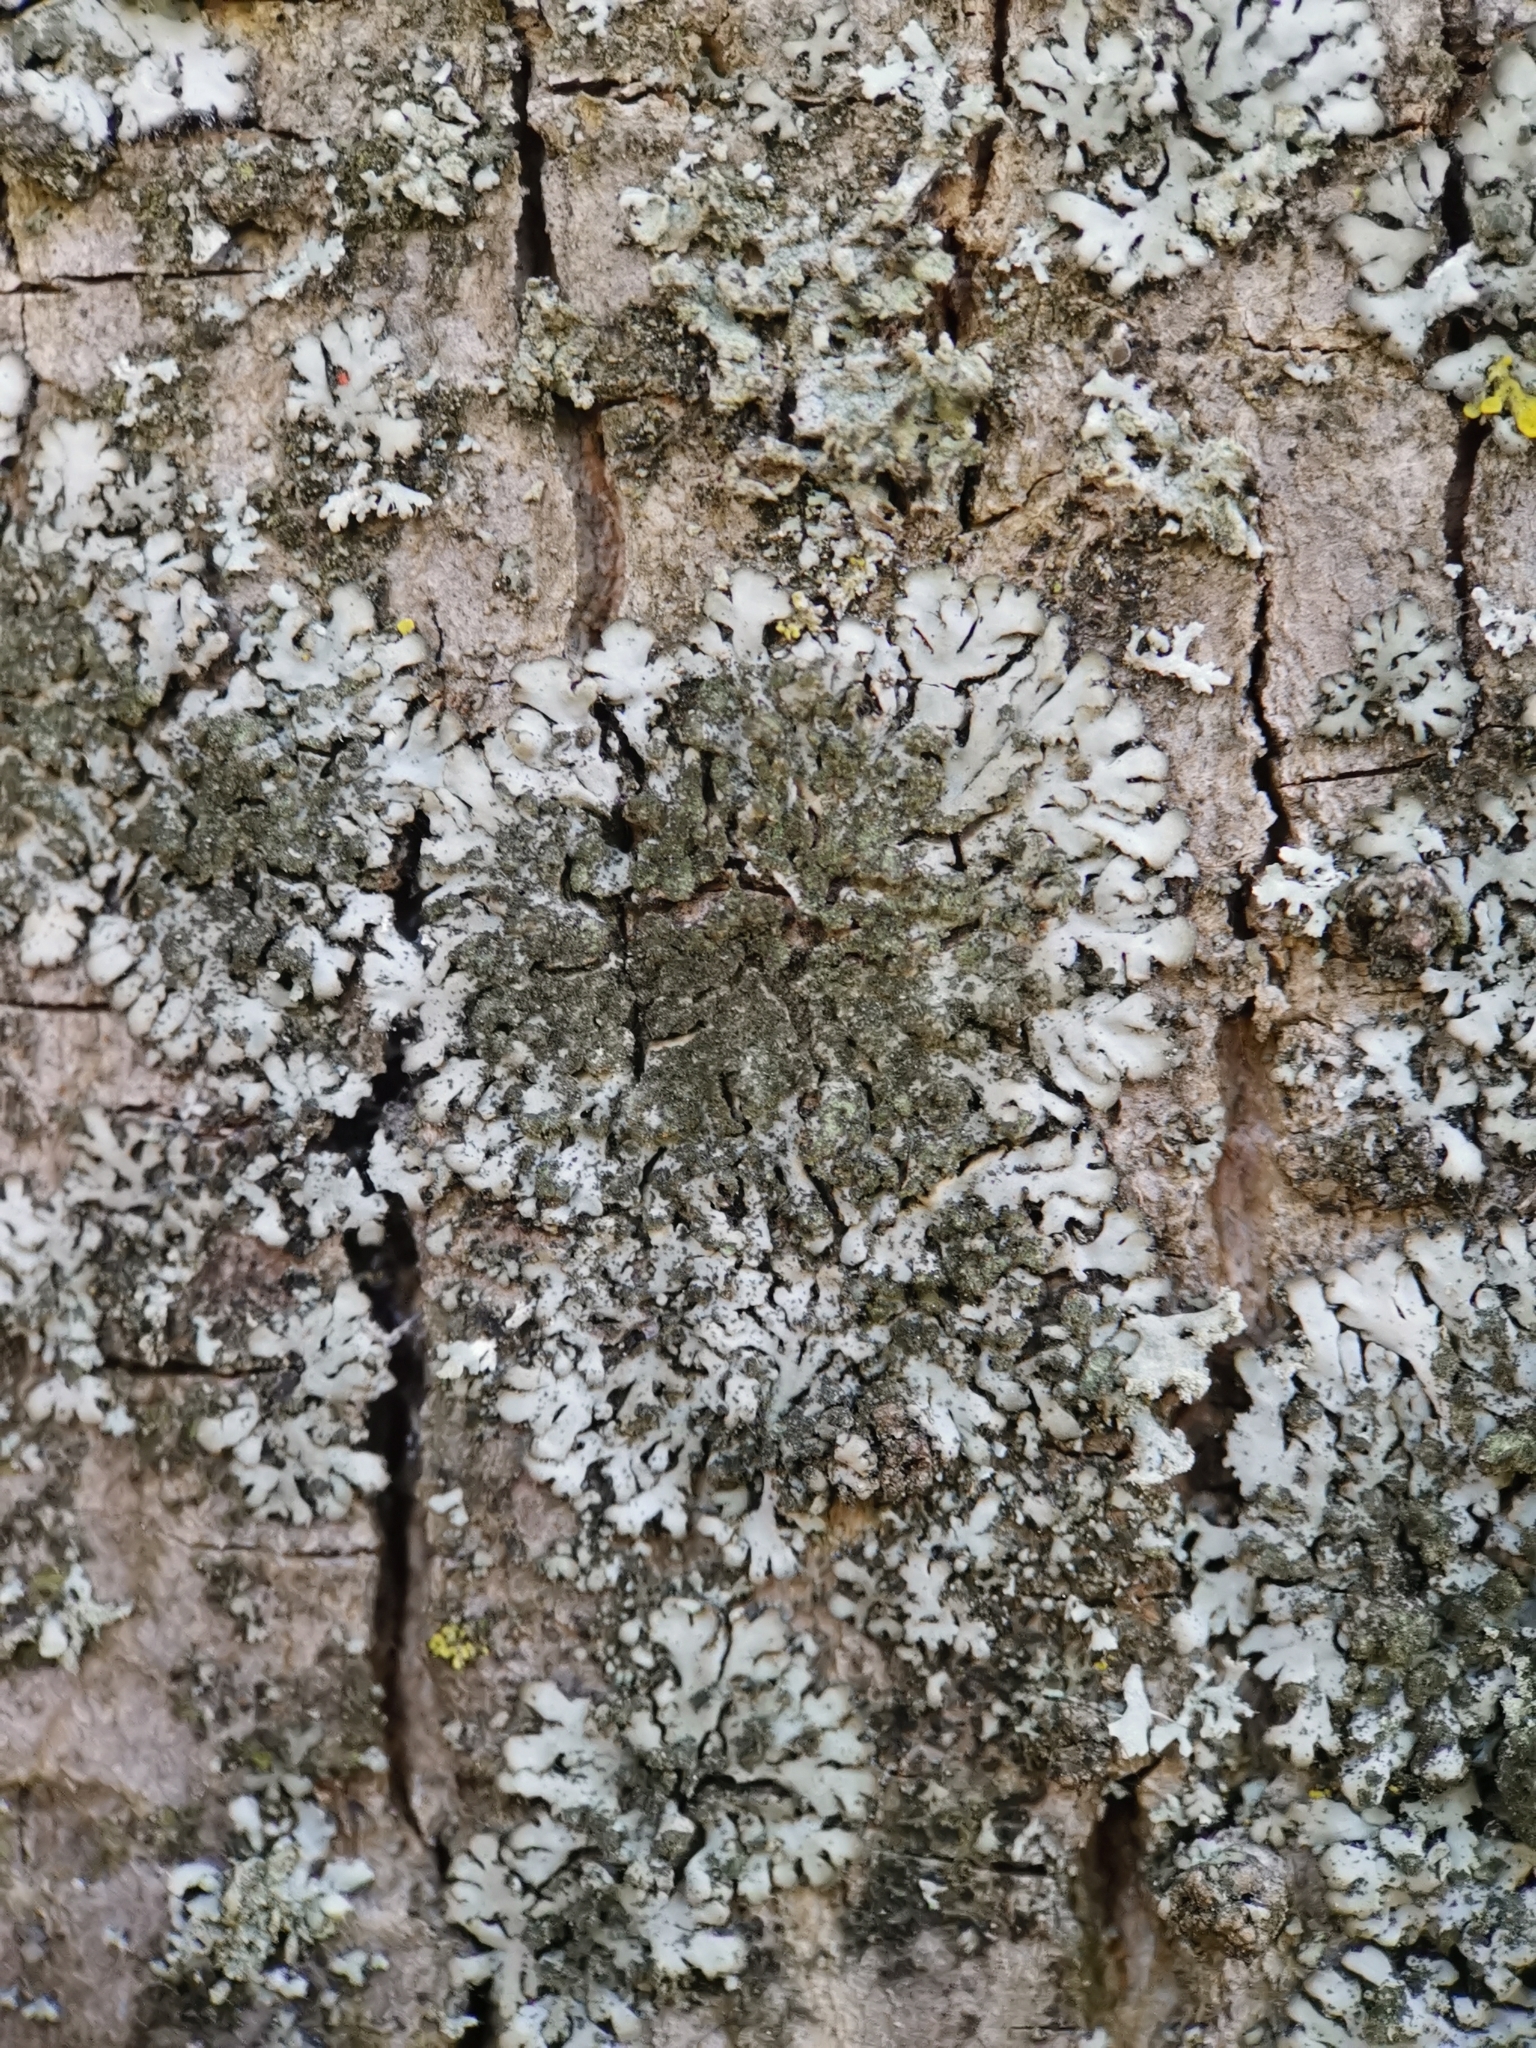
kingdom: Fungi
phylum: Ascomycota
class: Lecanoromycetes
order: Caliciales
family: Physciaceae
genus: Phaeophyscia
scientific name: Phaeophyscia orbicularis
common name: Mealy shadow lichen
